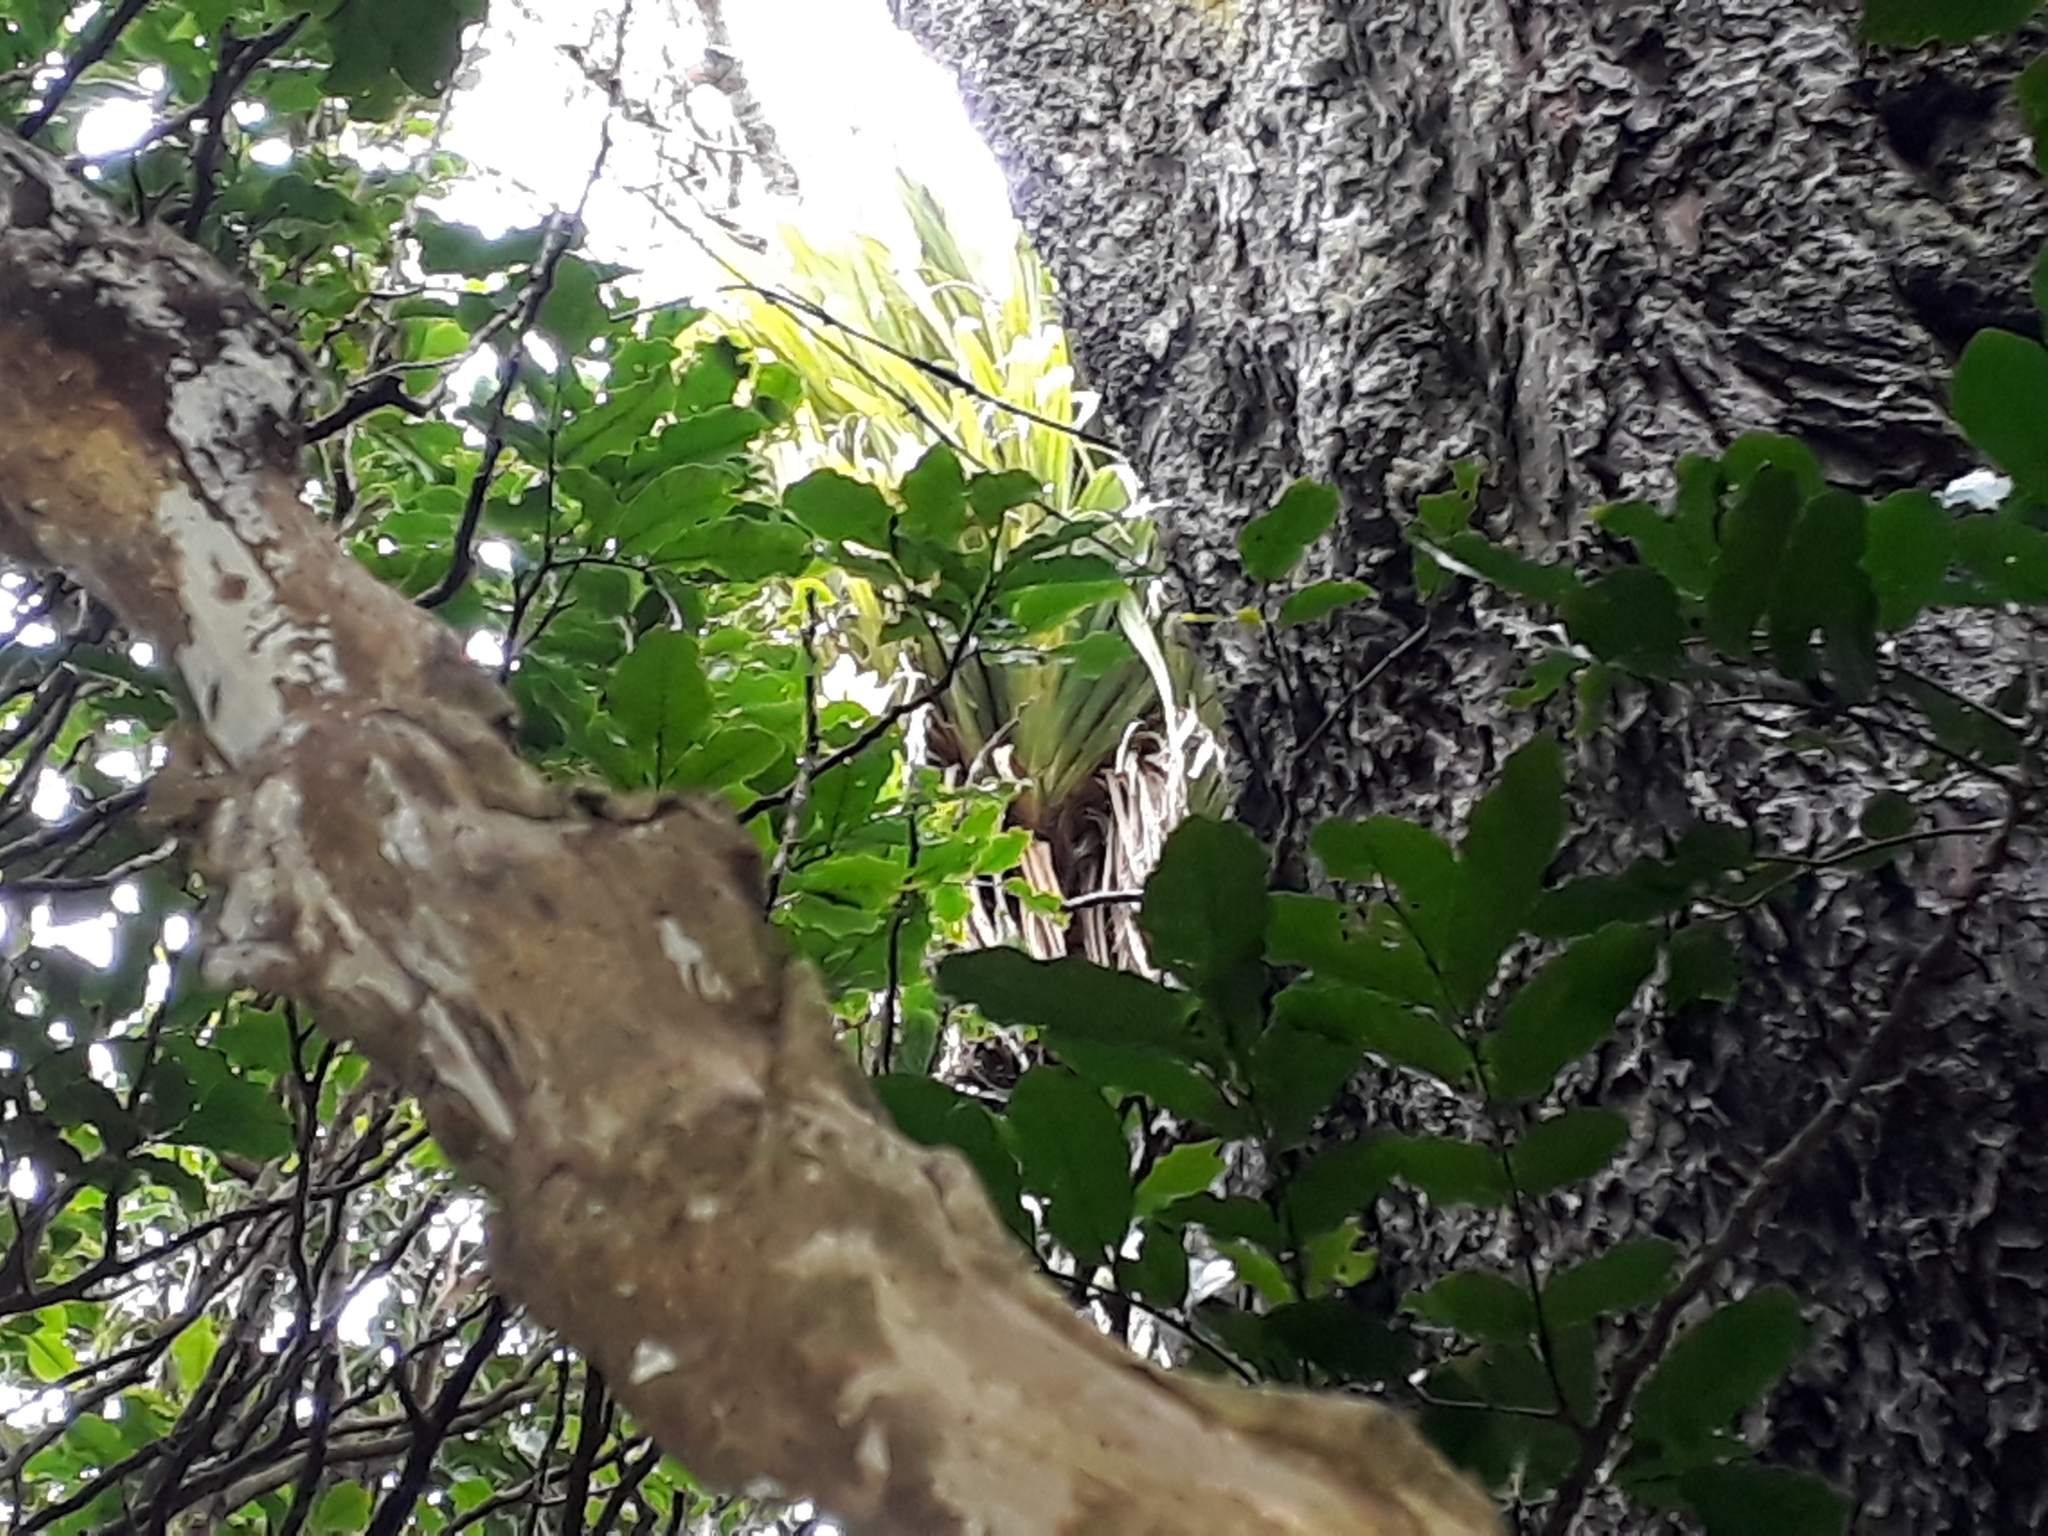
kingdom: Plantae
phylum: Tracheophyta
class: Liliopsida
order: Asparagales
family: Asteliaceae
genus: Astelia
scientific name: Astelia hastata
